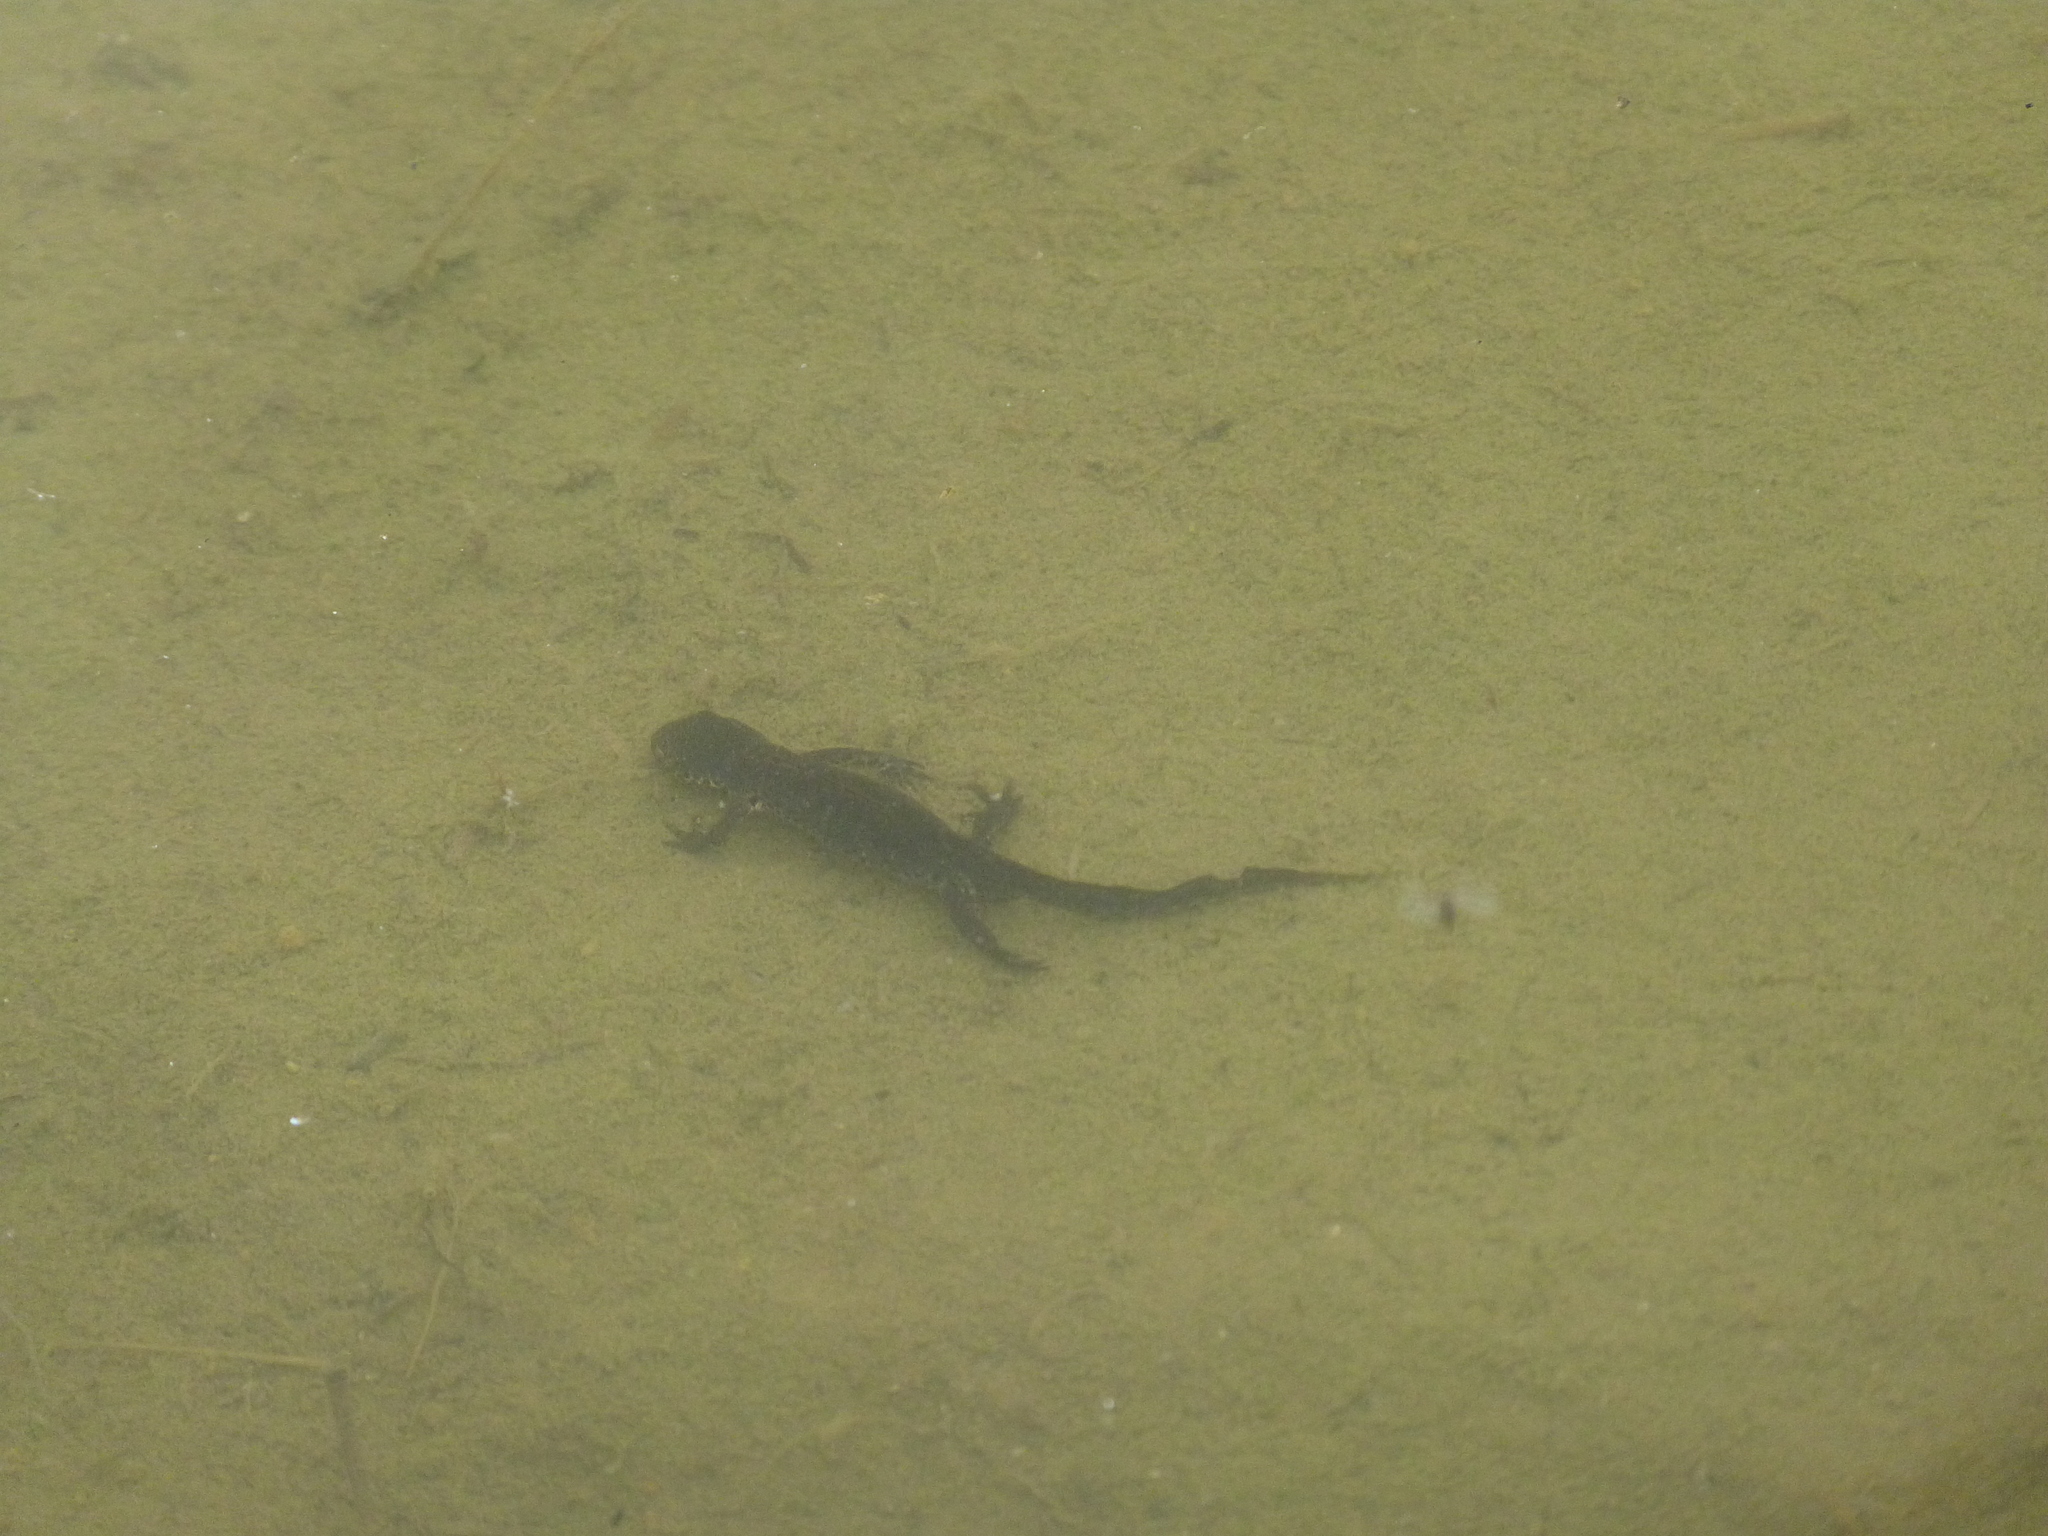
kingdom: Animalia
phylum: Chordata
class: Amphibia
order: Caudata
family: Salamandridae
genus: Ichthyosaura
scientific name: Ichthyosaura alpestris
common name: Alpine newt
